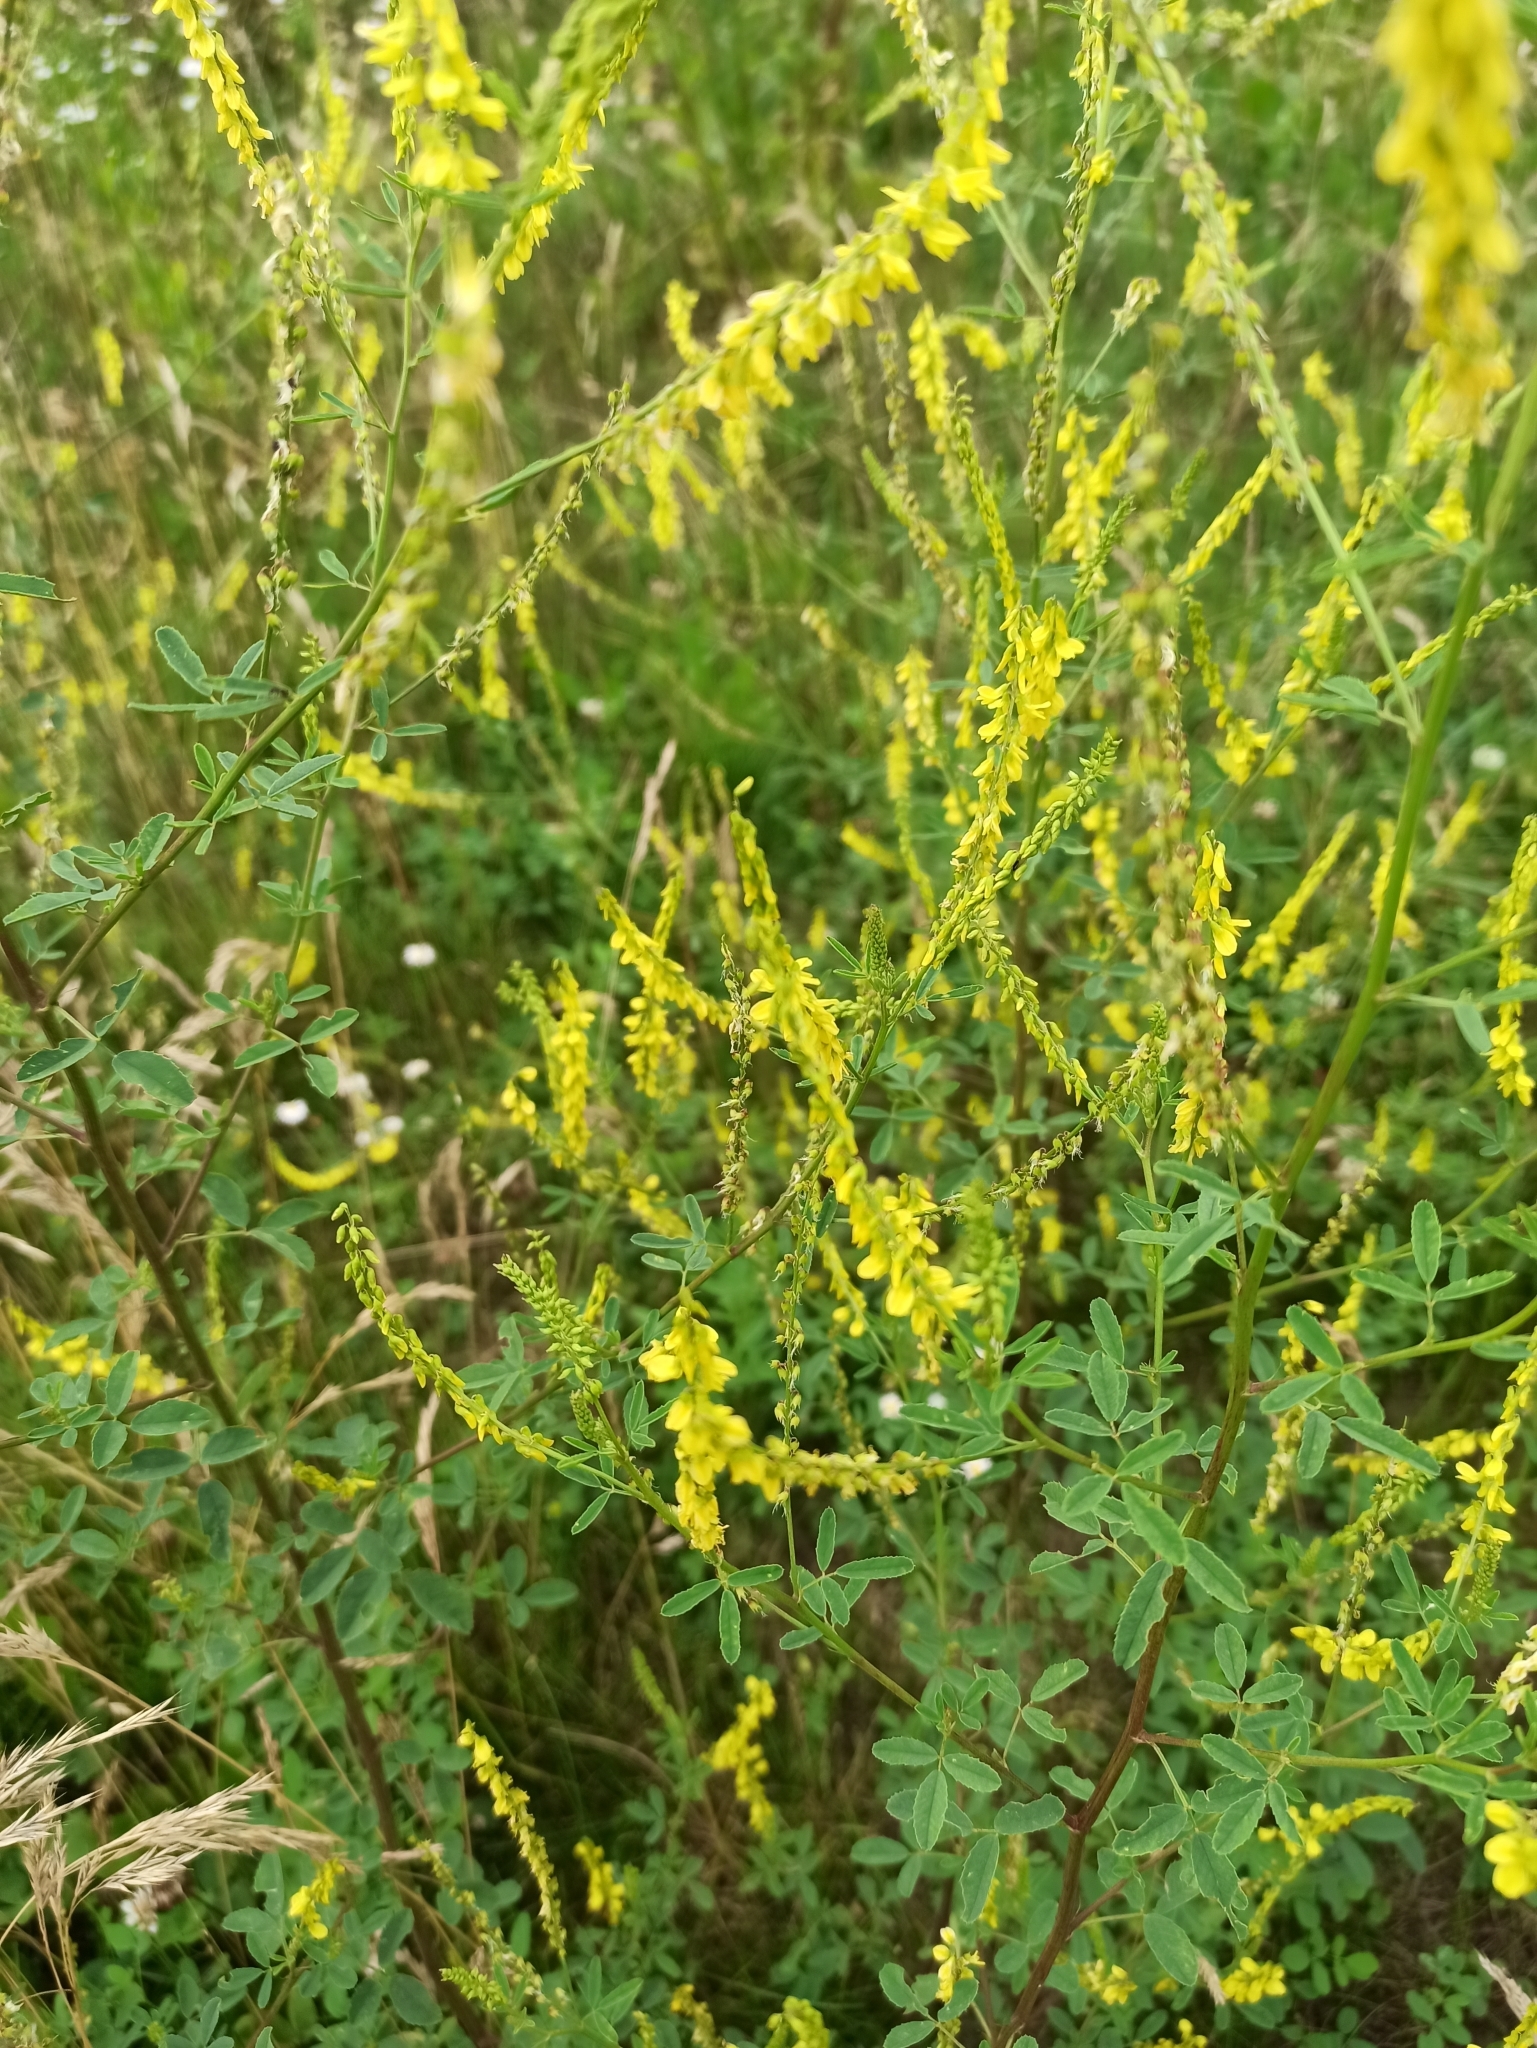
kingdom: Plantae
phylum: Tracheophyta
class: Magnoliopsida
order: Fabales
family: Fabaceae
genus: Melilotus
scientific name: Melilotus officinalis
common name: Sweetclover
